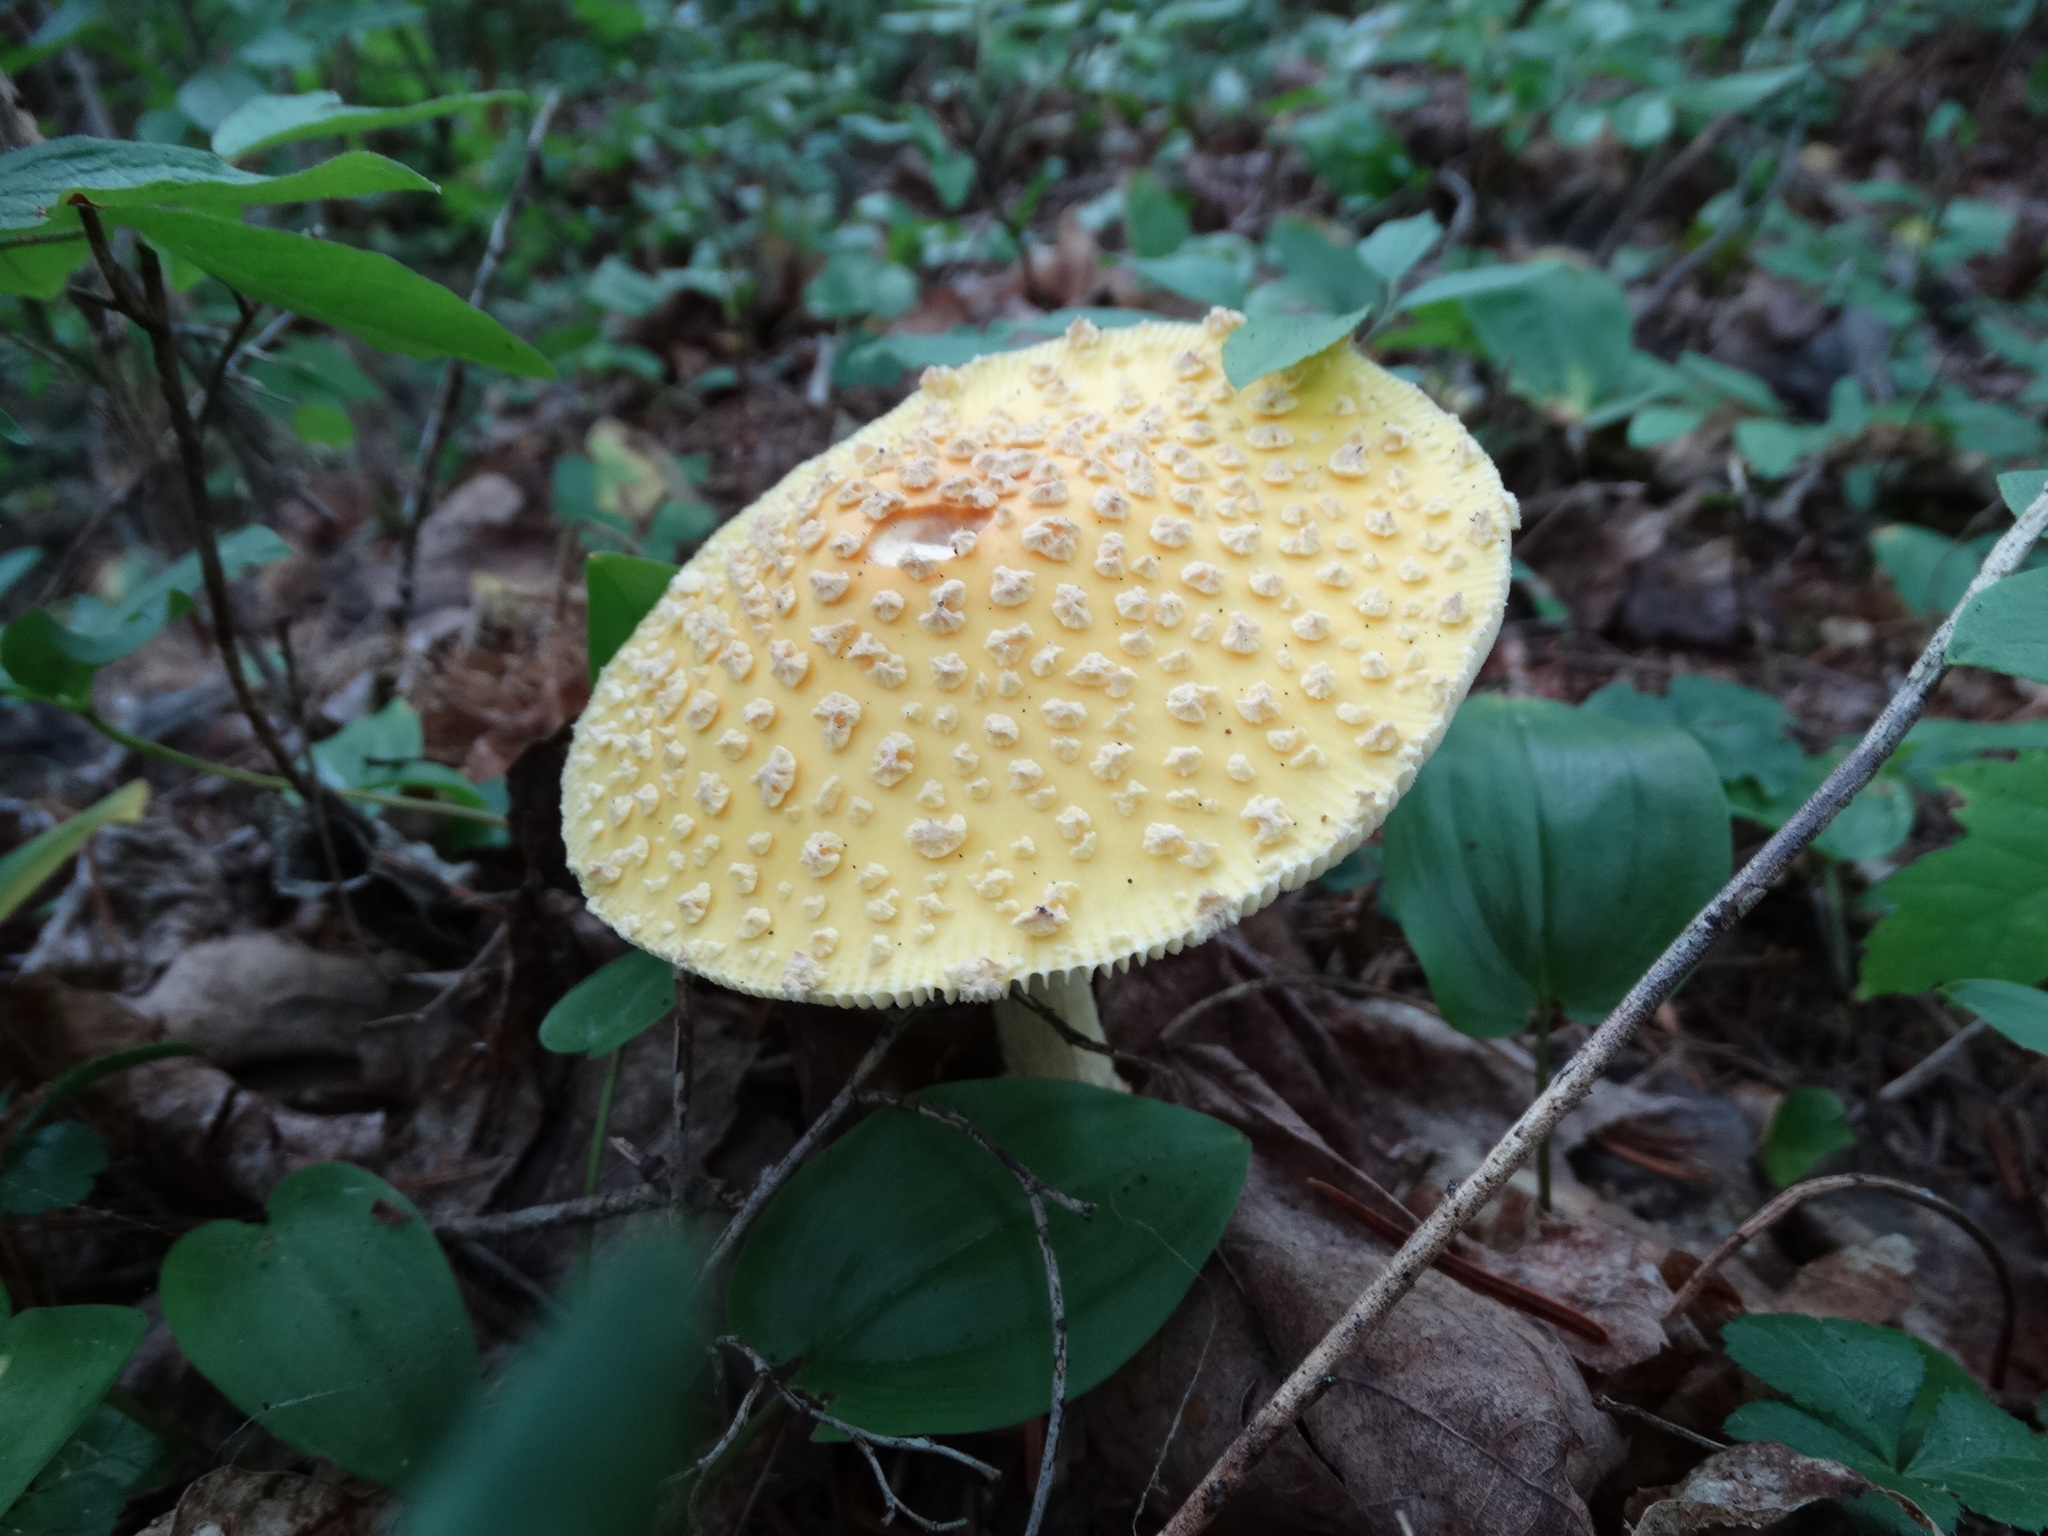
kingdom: Fungi
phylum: Basidiomycota
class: Agaricomycetes
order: Agaricales
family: Amanitaceae
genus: Amanita
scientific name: Amanita muscaria
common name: Fly agaric
